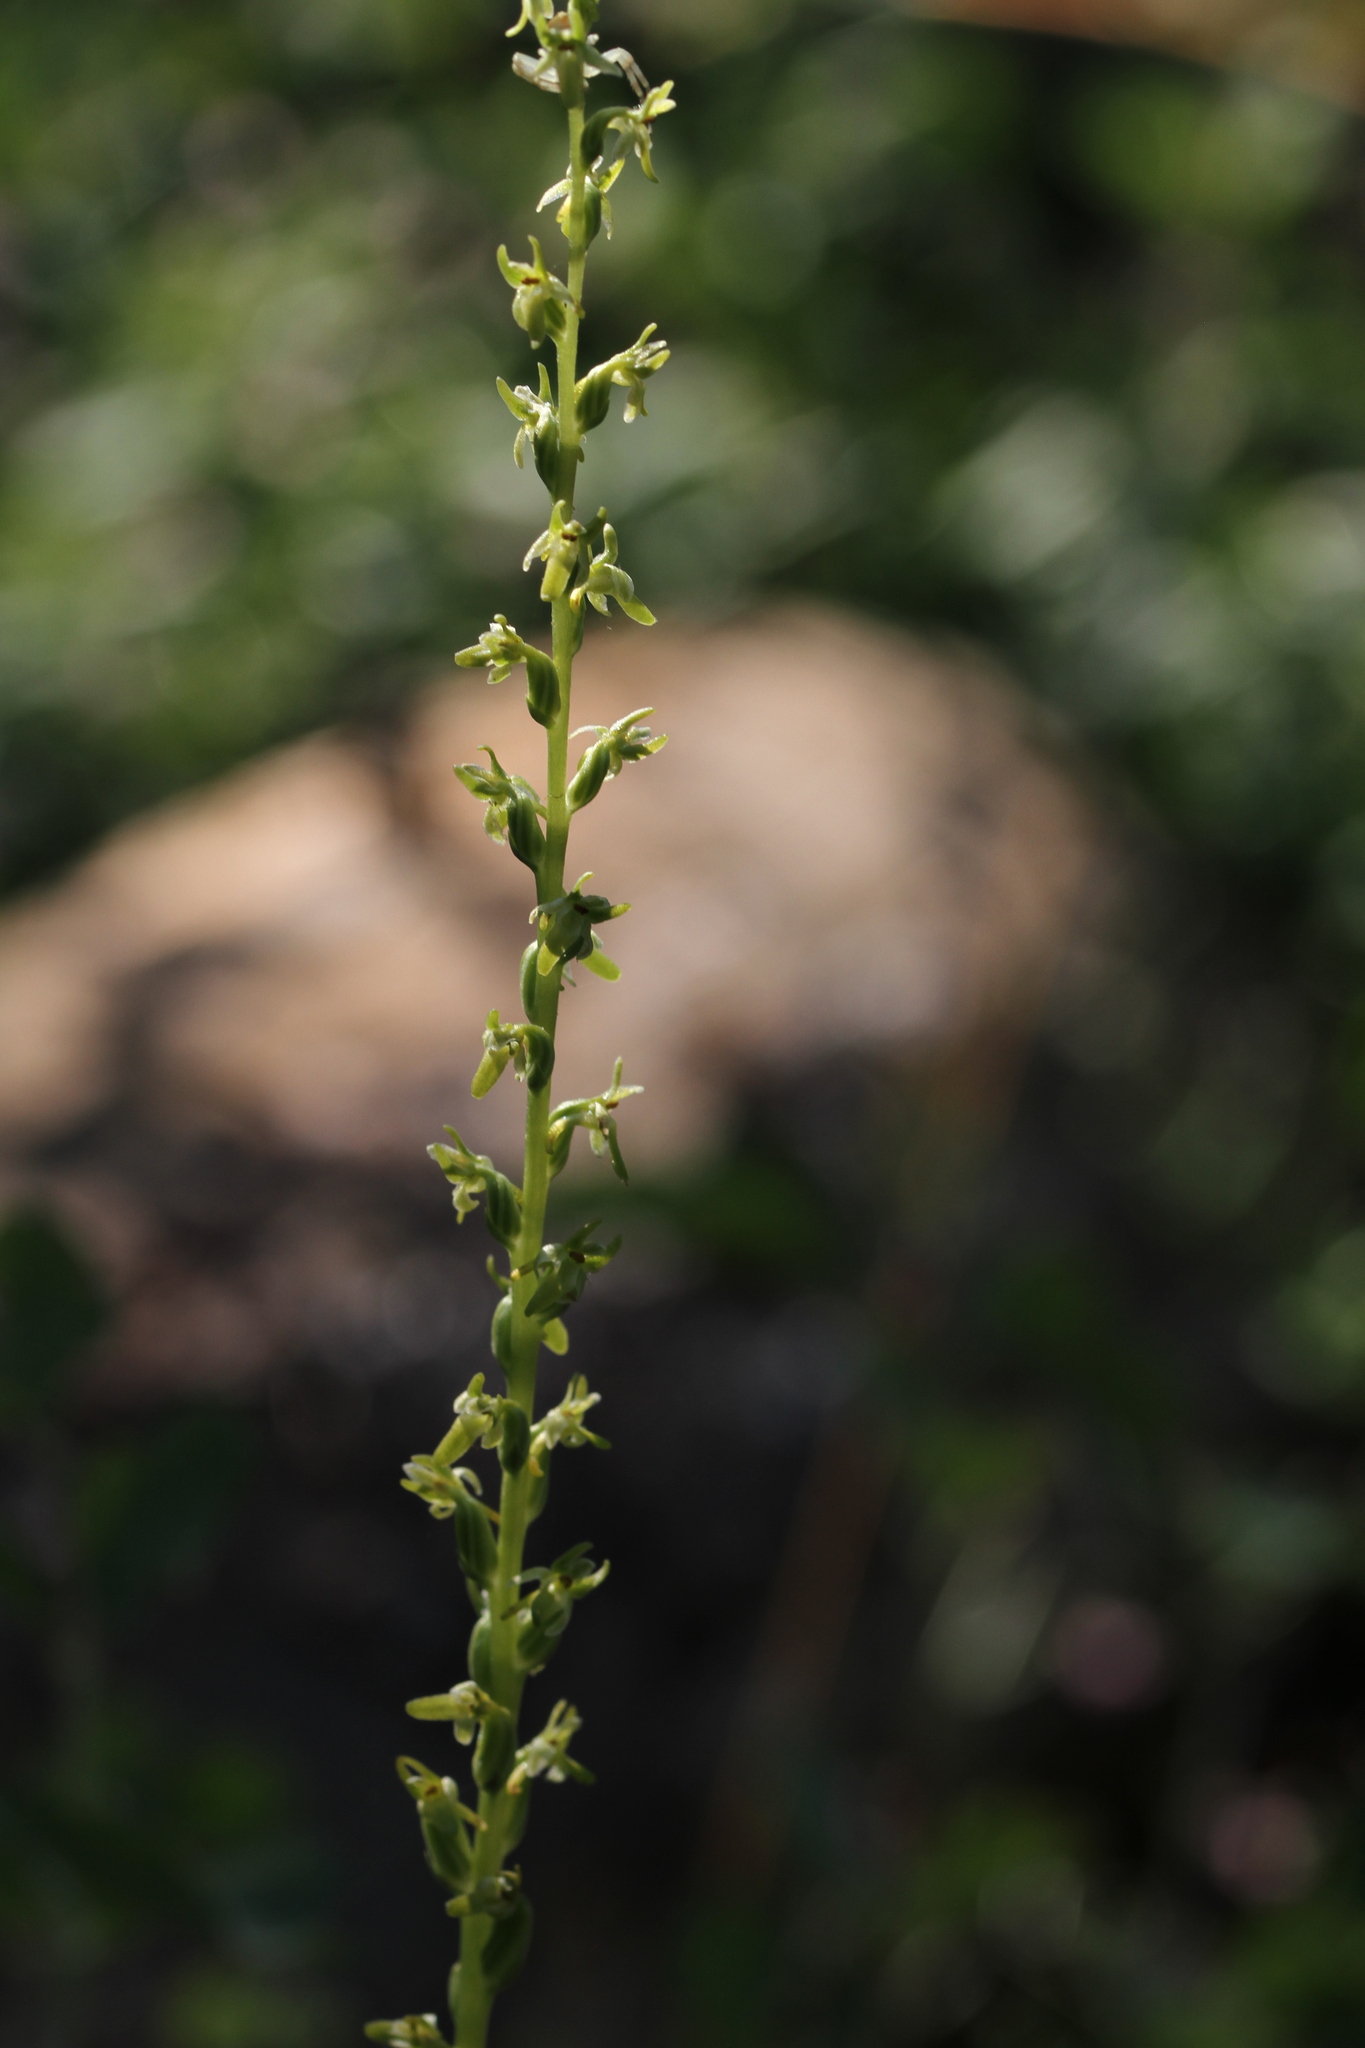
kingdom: Plantae
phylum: Tracheophyta
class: Liliopsida
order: Asparagales
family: Orchidaceae
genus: Platanthera
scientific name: Platanthera unalascensis
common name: Alaska bog orchid
